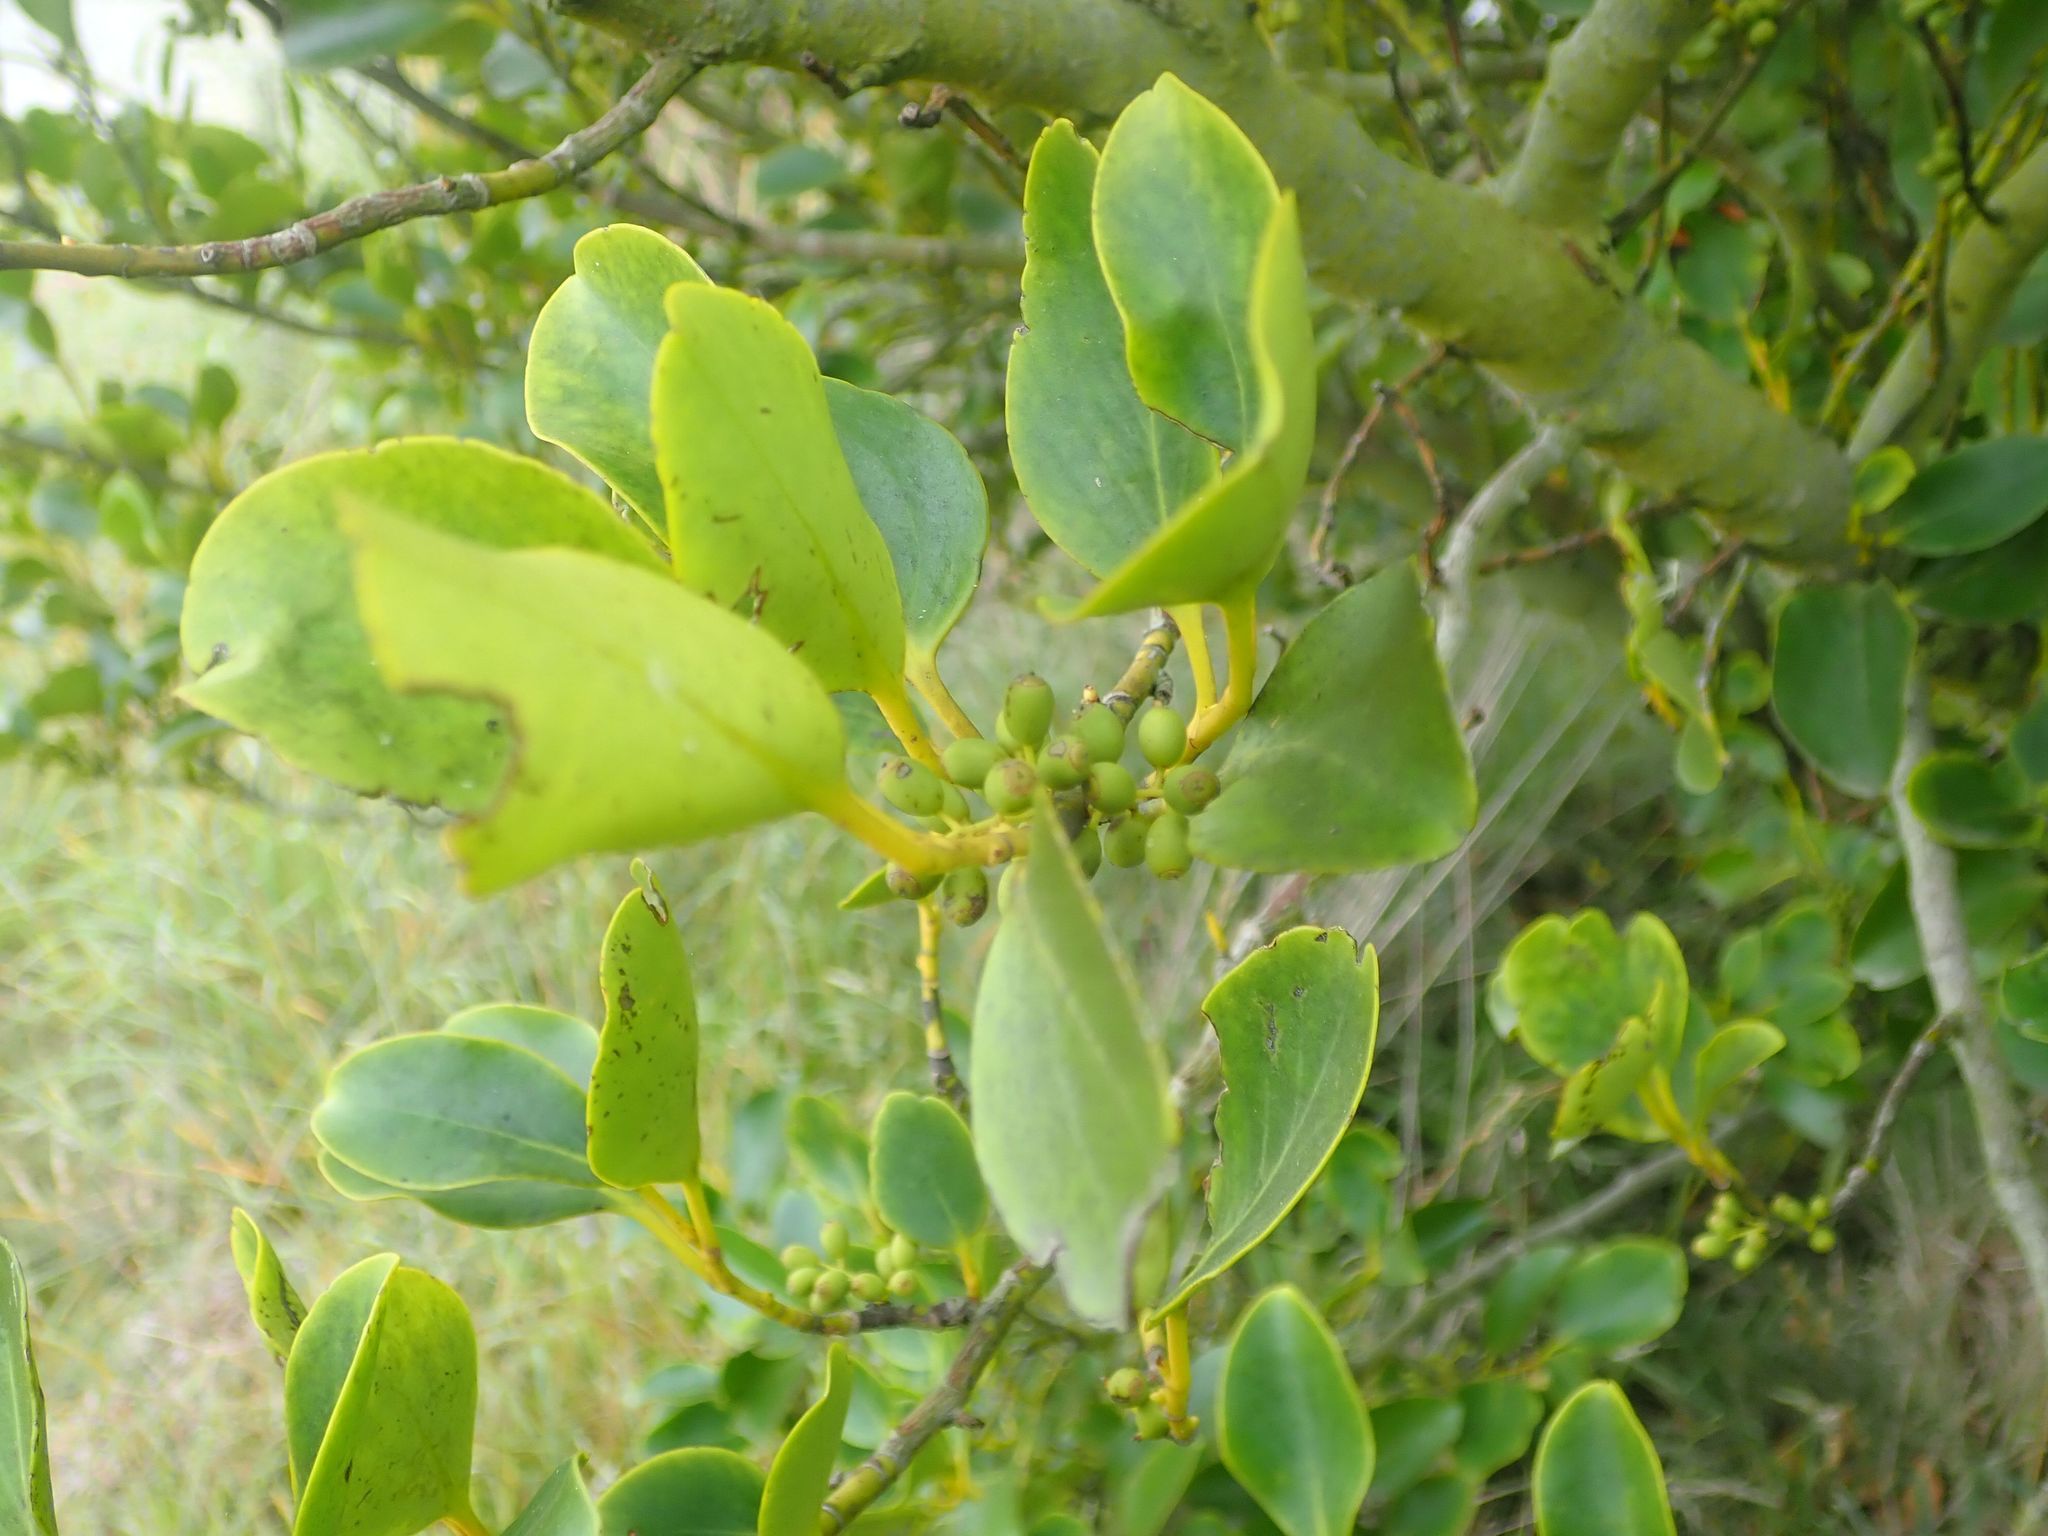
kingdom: Plantae
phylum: Tracheophyta
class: Magnoliopsida
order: Apiales
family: Griseliniaceae
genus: Griselinia
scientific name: Griselinia littoralis
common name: New zealand broadleaf
